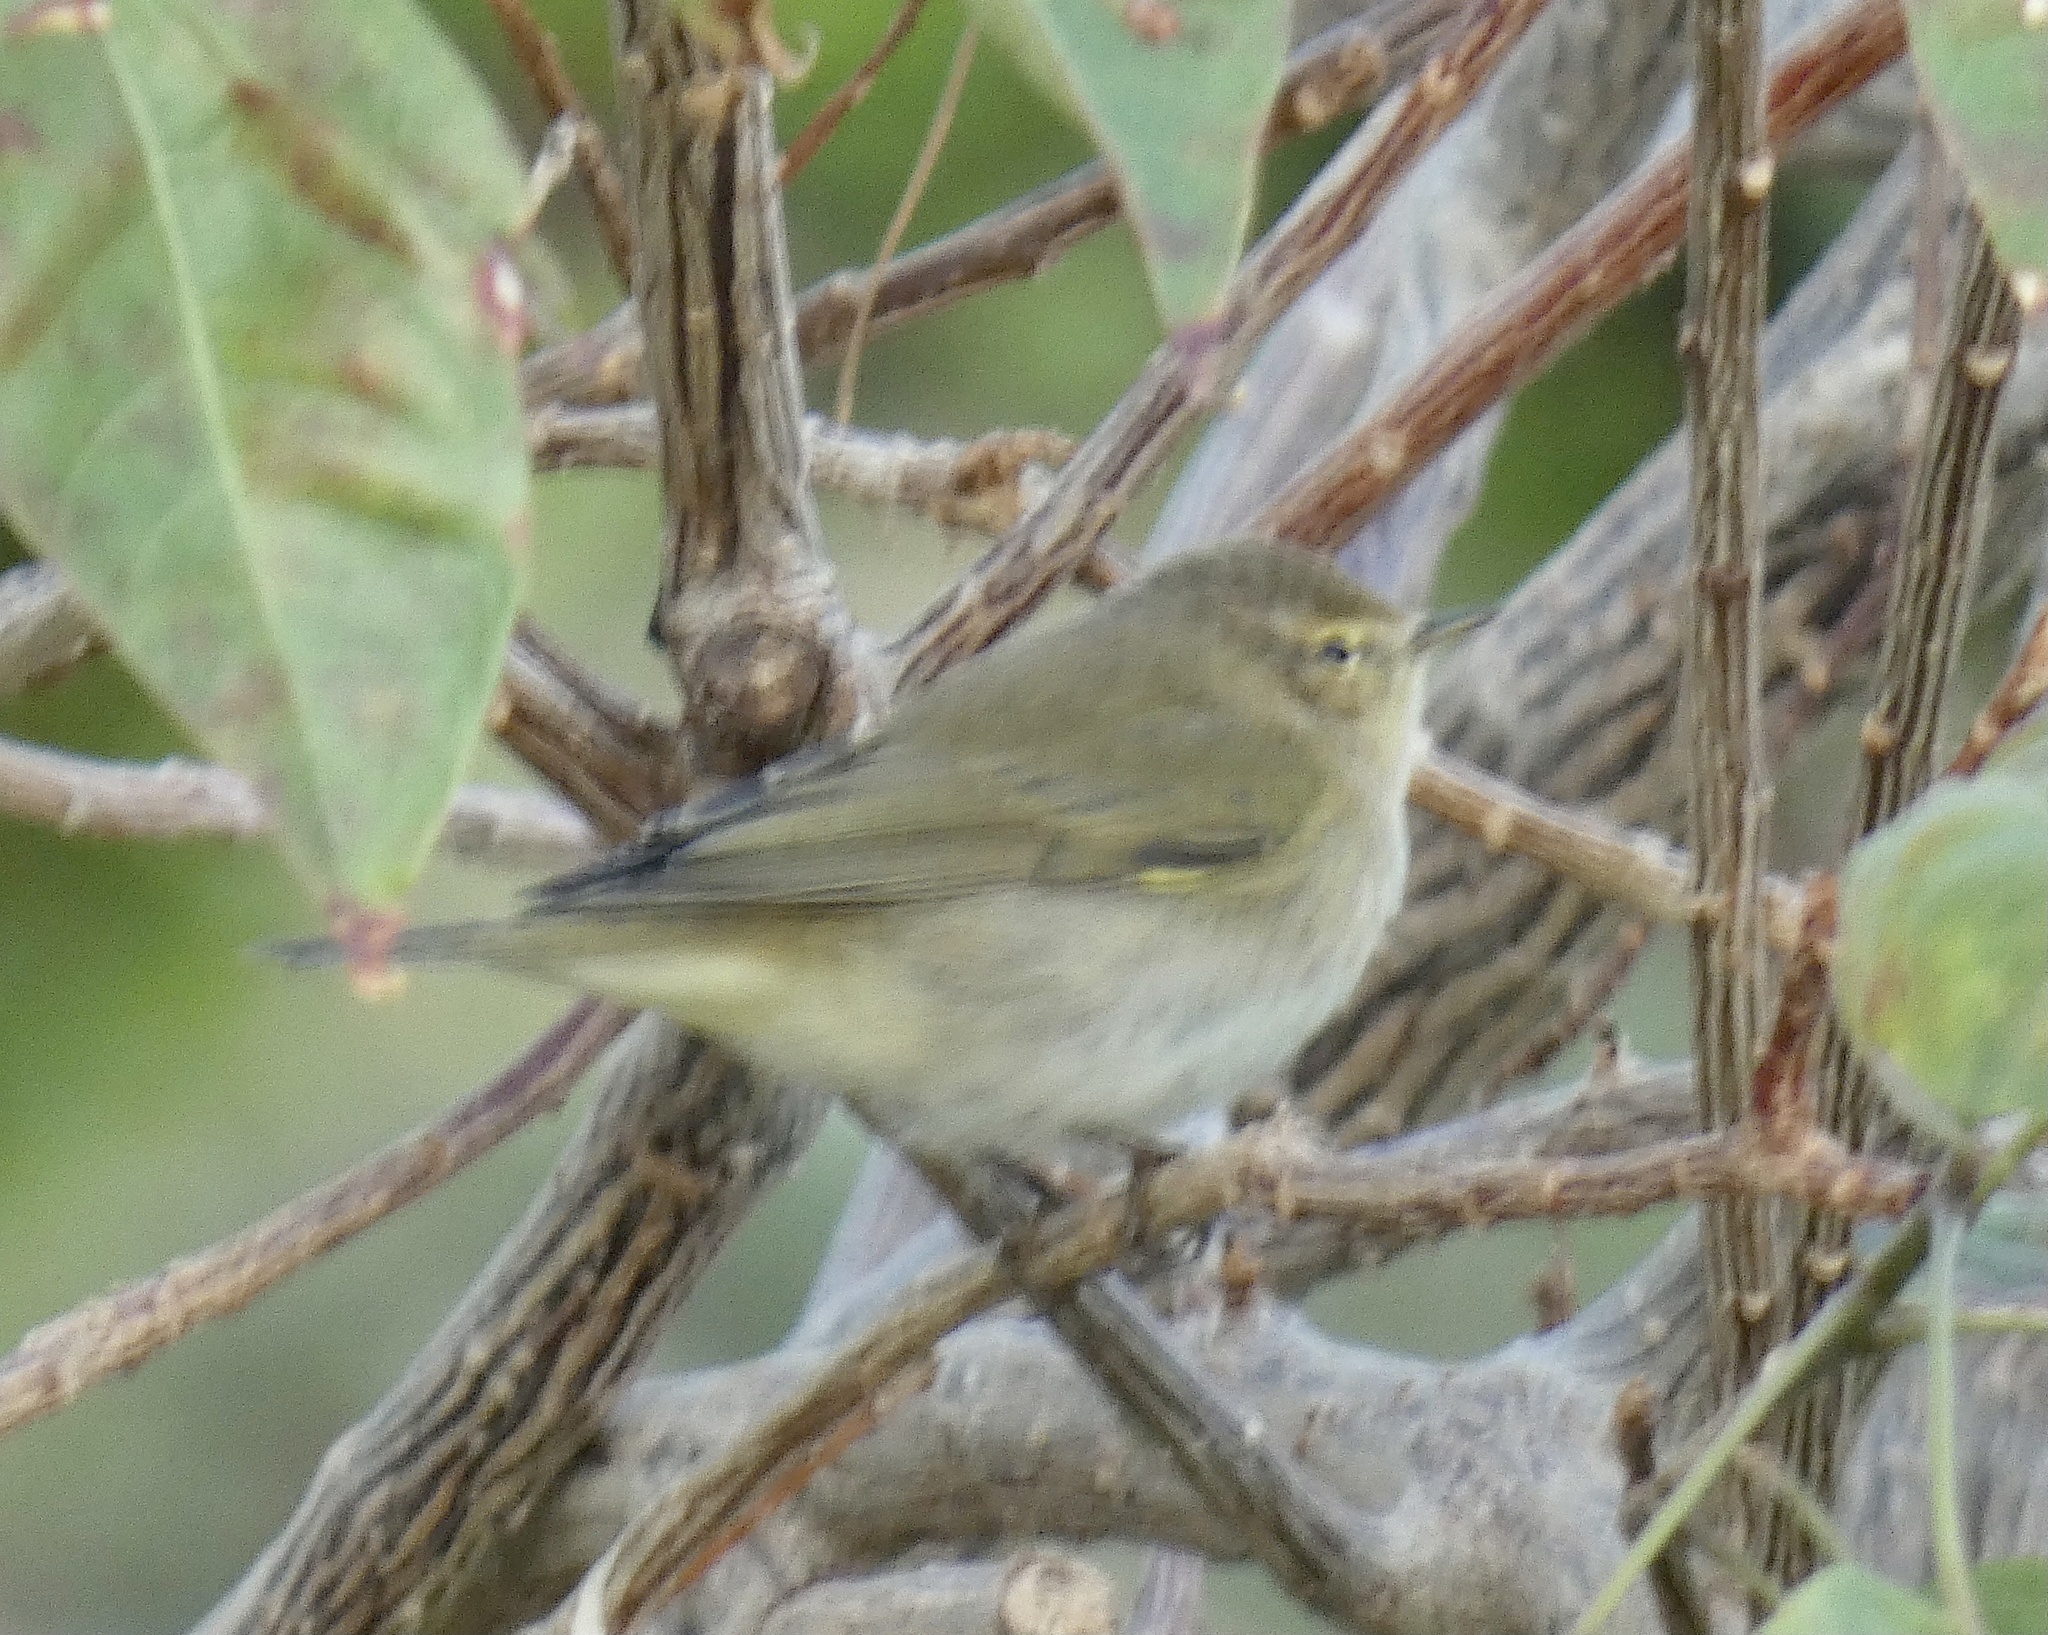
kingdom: Animalia
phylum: Chordata
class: Aves
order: Passeriformes
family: Phylloscopidae
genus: Phylloscopus
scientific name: Phylloscopus collybita
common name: Common chiffchaff
